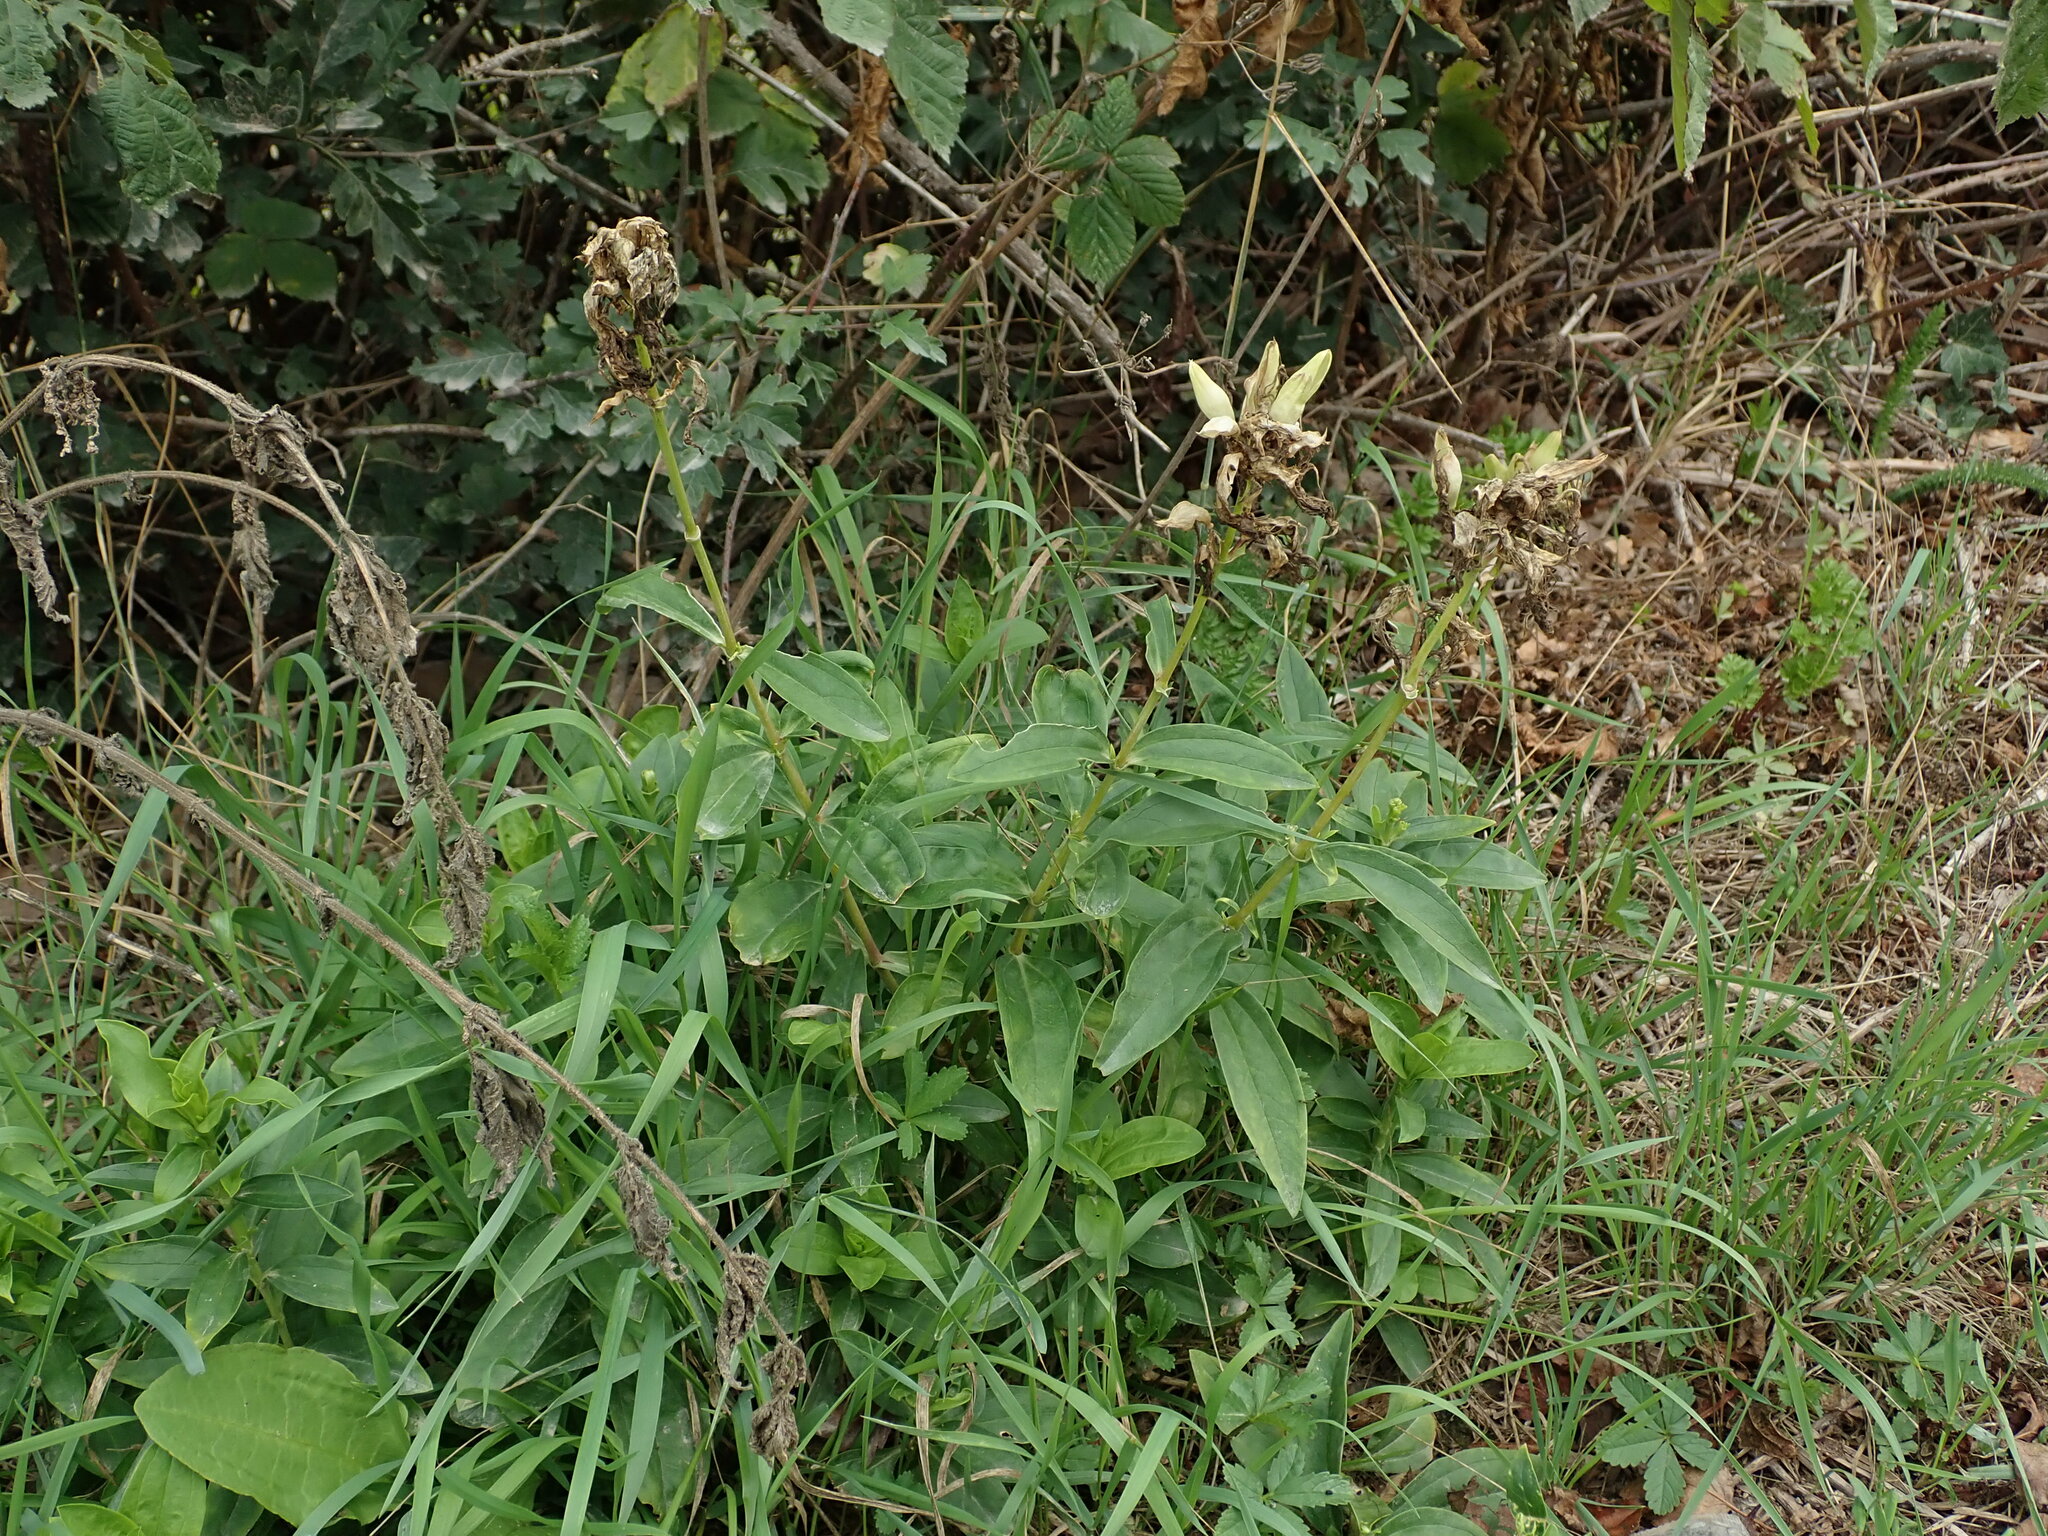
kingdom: Plantae
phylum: Tracheophyta
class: Magnoliopsida
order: Caryophyllales
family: Caryophyllaceae
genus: Saponaria
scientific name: Saponaria officinalis
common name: Soapwort
